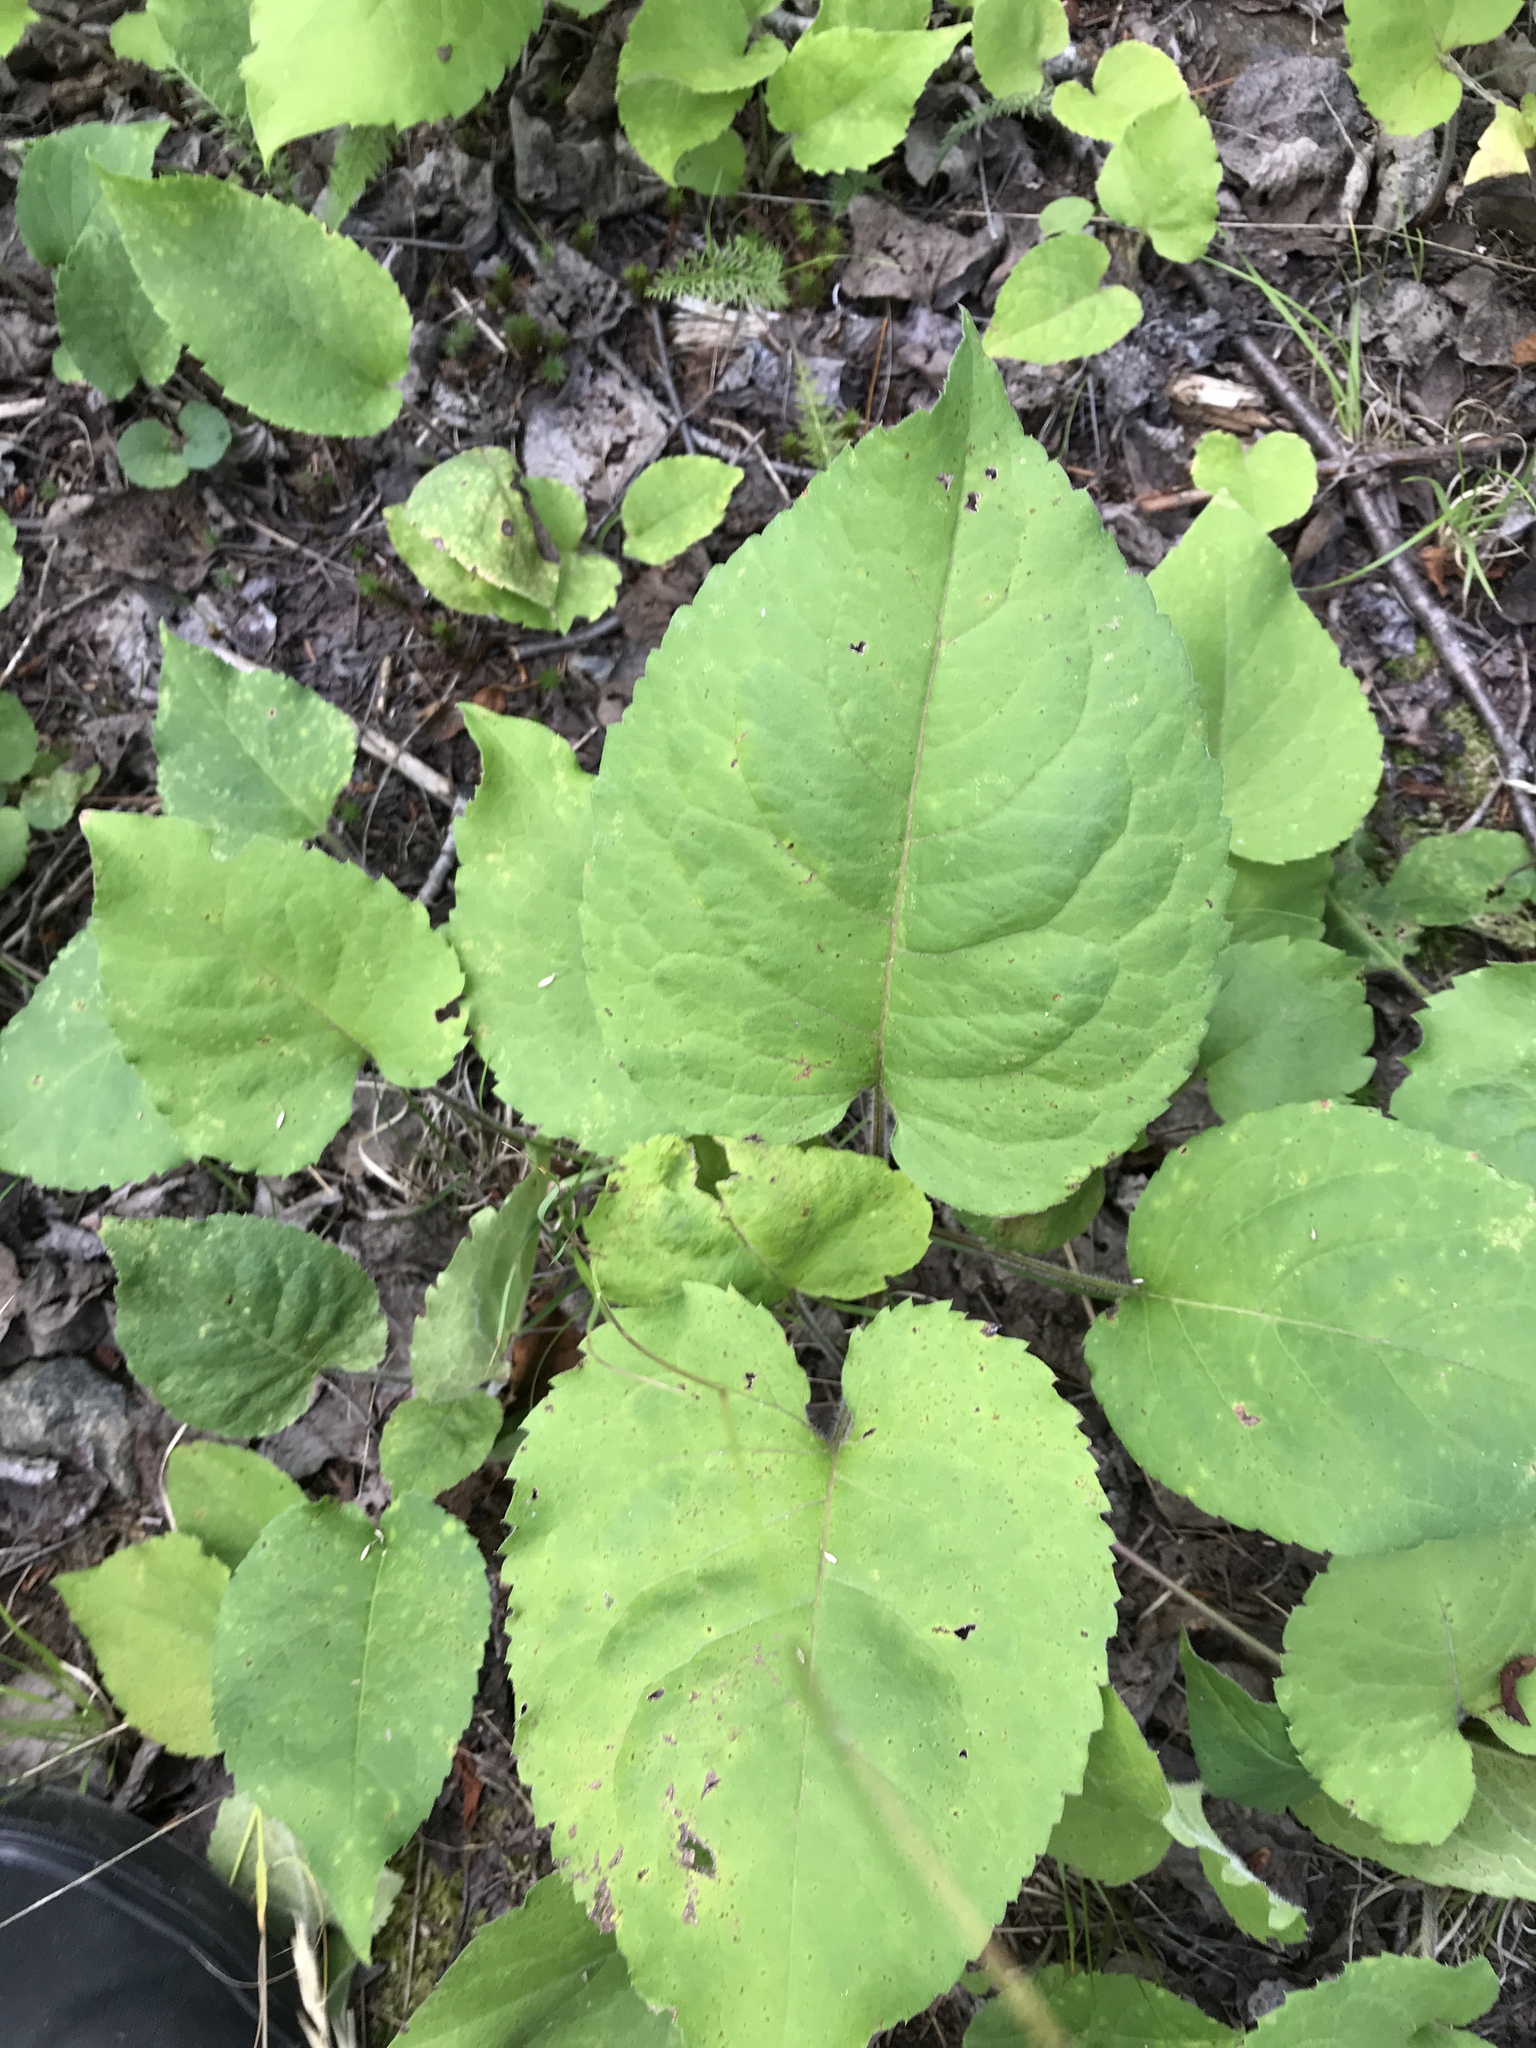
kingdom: Plantae
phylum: Tracheophyta
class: Magnoliopsida
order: Asterales
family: Asteraceae
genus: Eurybia
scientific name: Eurybia macrophylla
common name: Big-leaved aster
